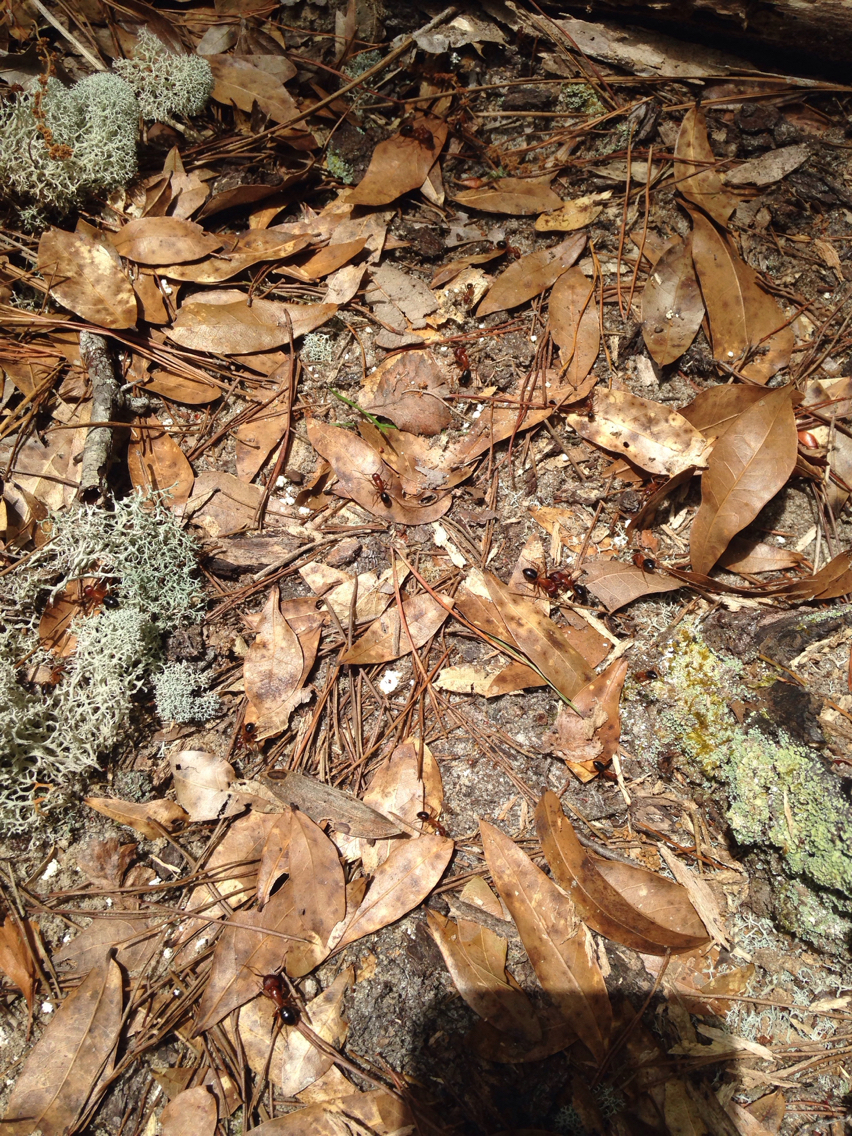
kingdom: Animalia
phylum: Arthropoda
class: Insecta
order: Hymenoptera
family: Formicidae
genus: Camponotus
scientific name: Camponotus floridanus
